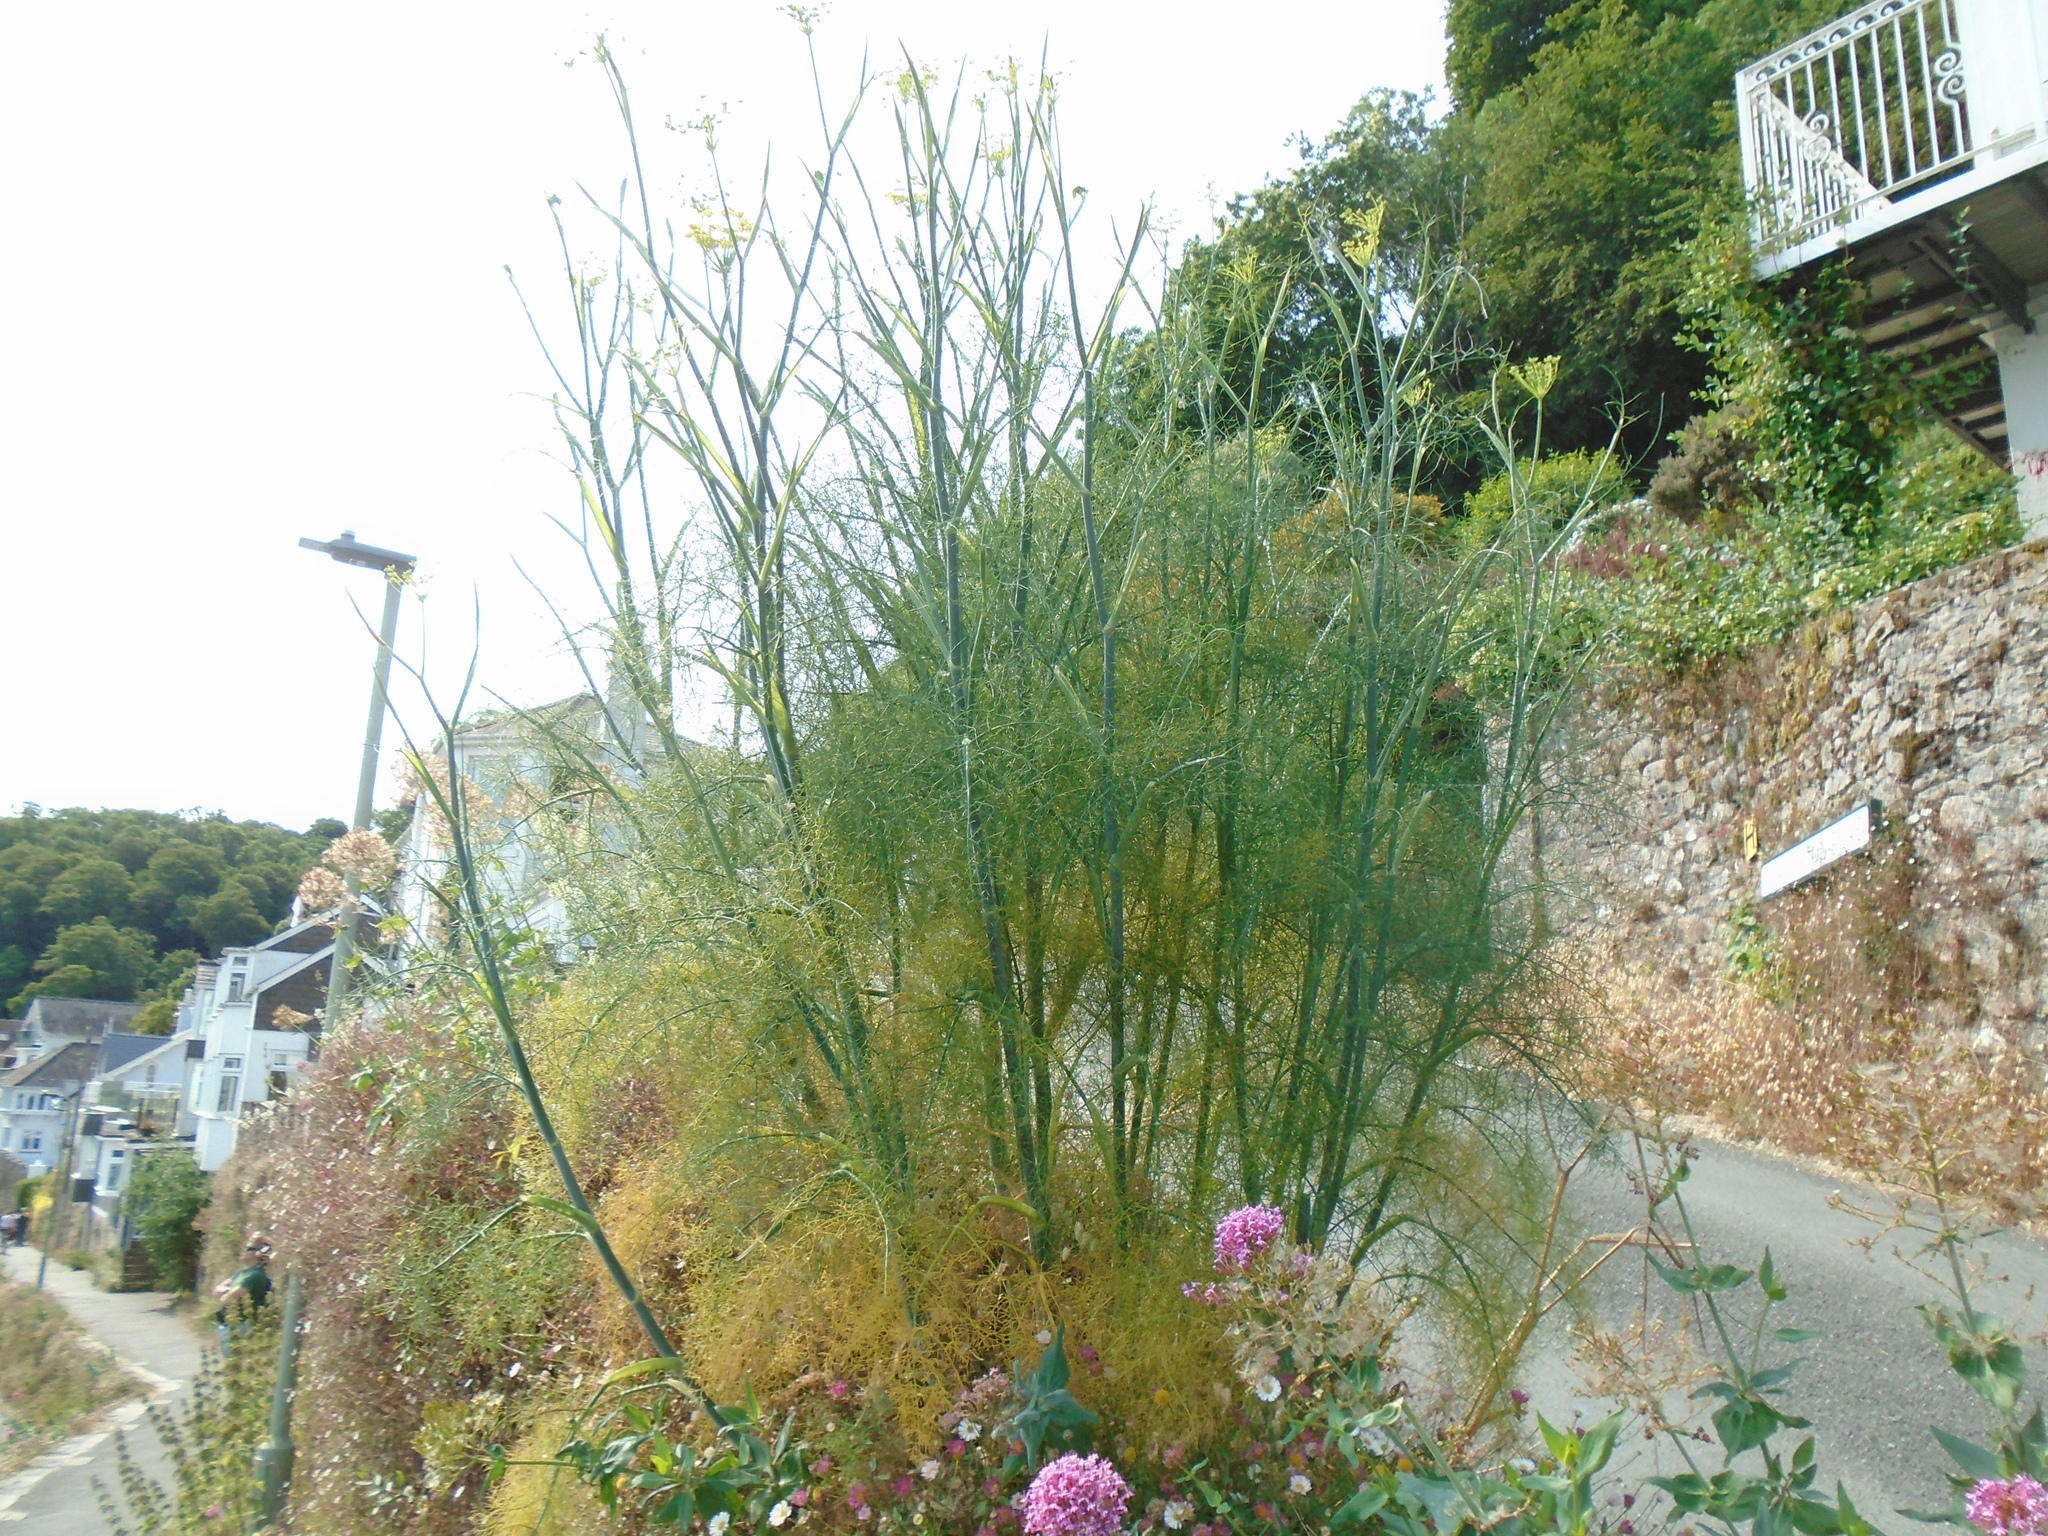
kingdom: Plantae
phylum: Tracheophyta
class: Magnoliopsida
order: Apiales
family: Apiaceae
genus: Foeniculum
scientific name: Foeniculum vulgare
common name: Fennel
